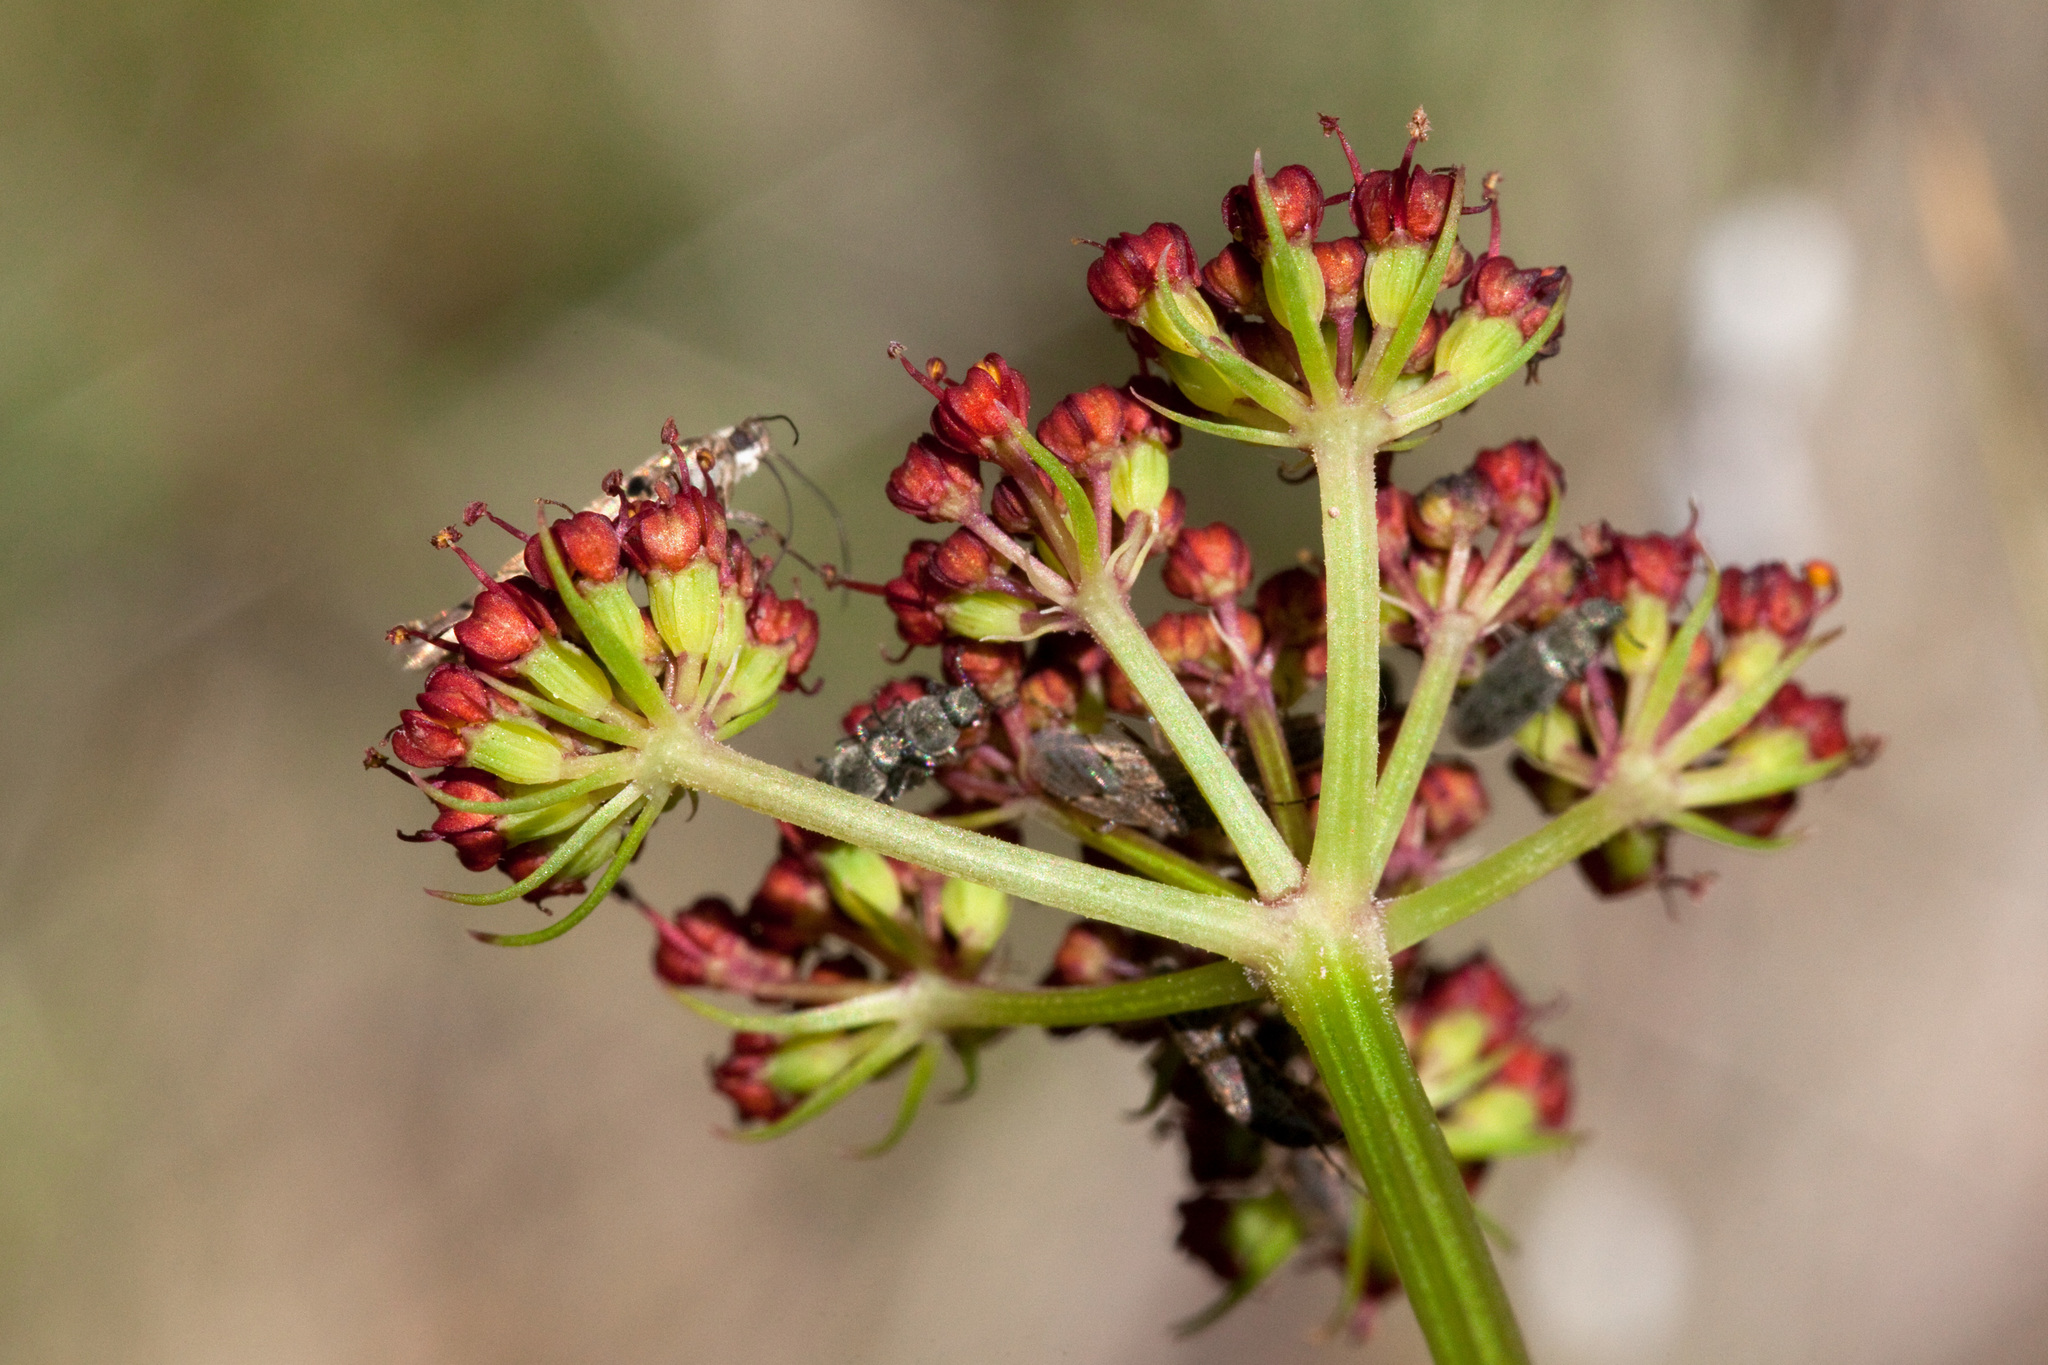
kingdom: Plantae
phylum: Tracheophyta
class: Magnoliopsida
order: Apiales
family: Apiaceae
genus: Cymopterus
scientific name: Cymopterus lemmonii
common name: Lemmon's spring-parsley
